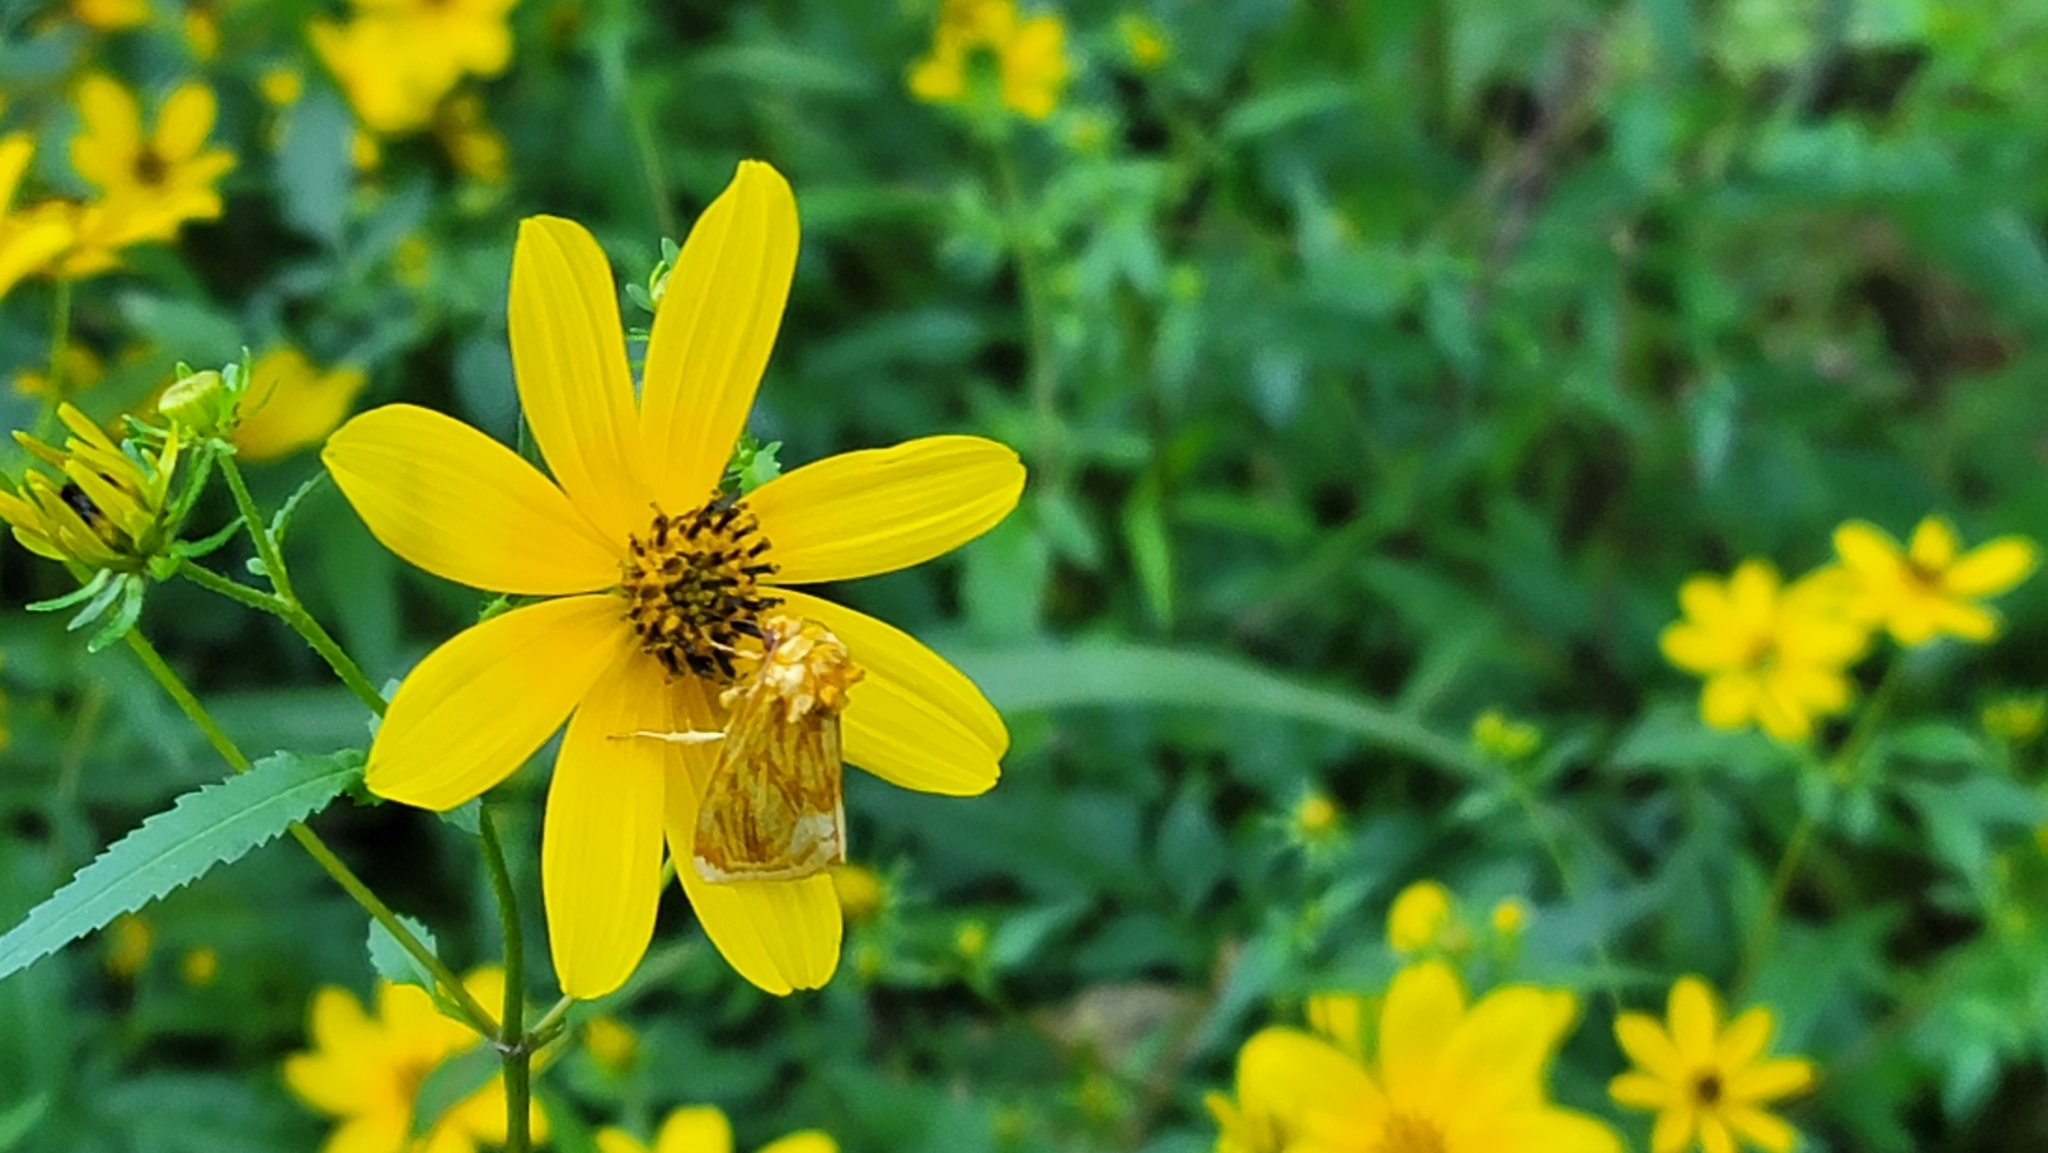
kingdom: Animalia
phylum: Arthropoda
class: Insecta
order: Lepidoptera
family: Noctuidae
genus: Cirrhophanus
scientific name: Cirrhophanus triangulifer
